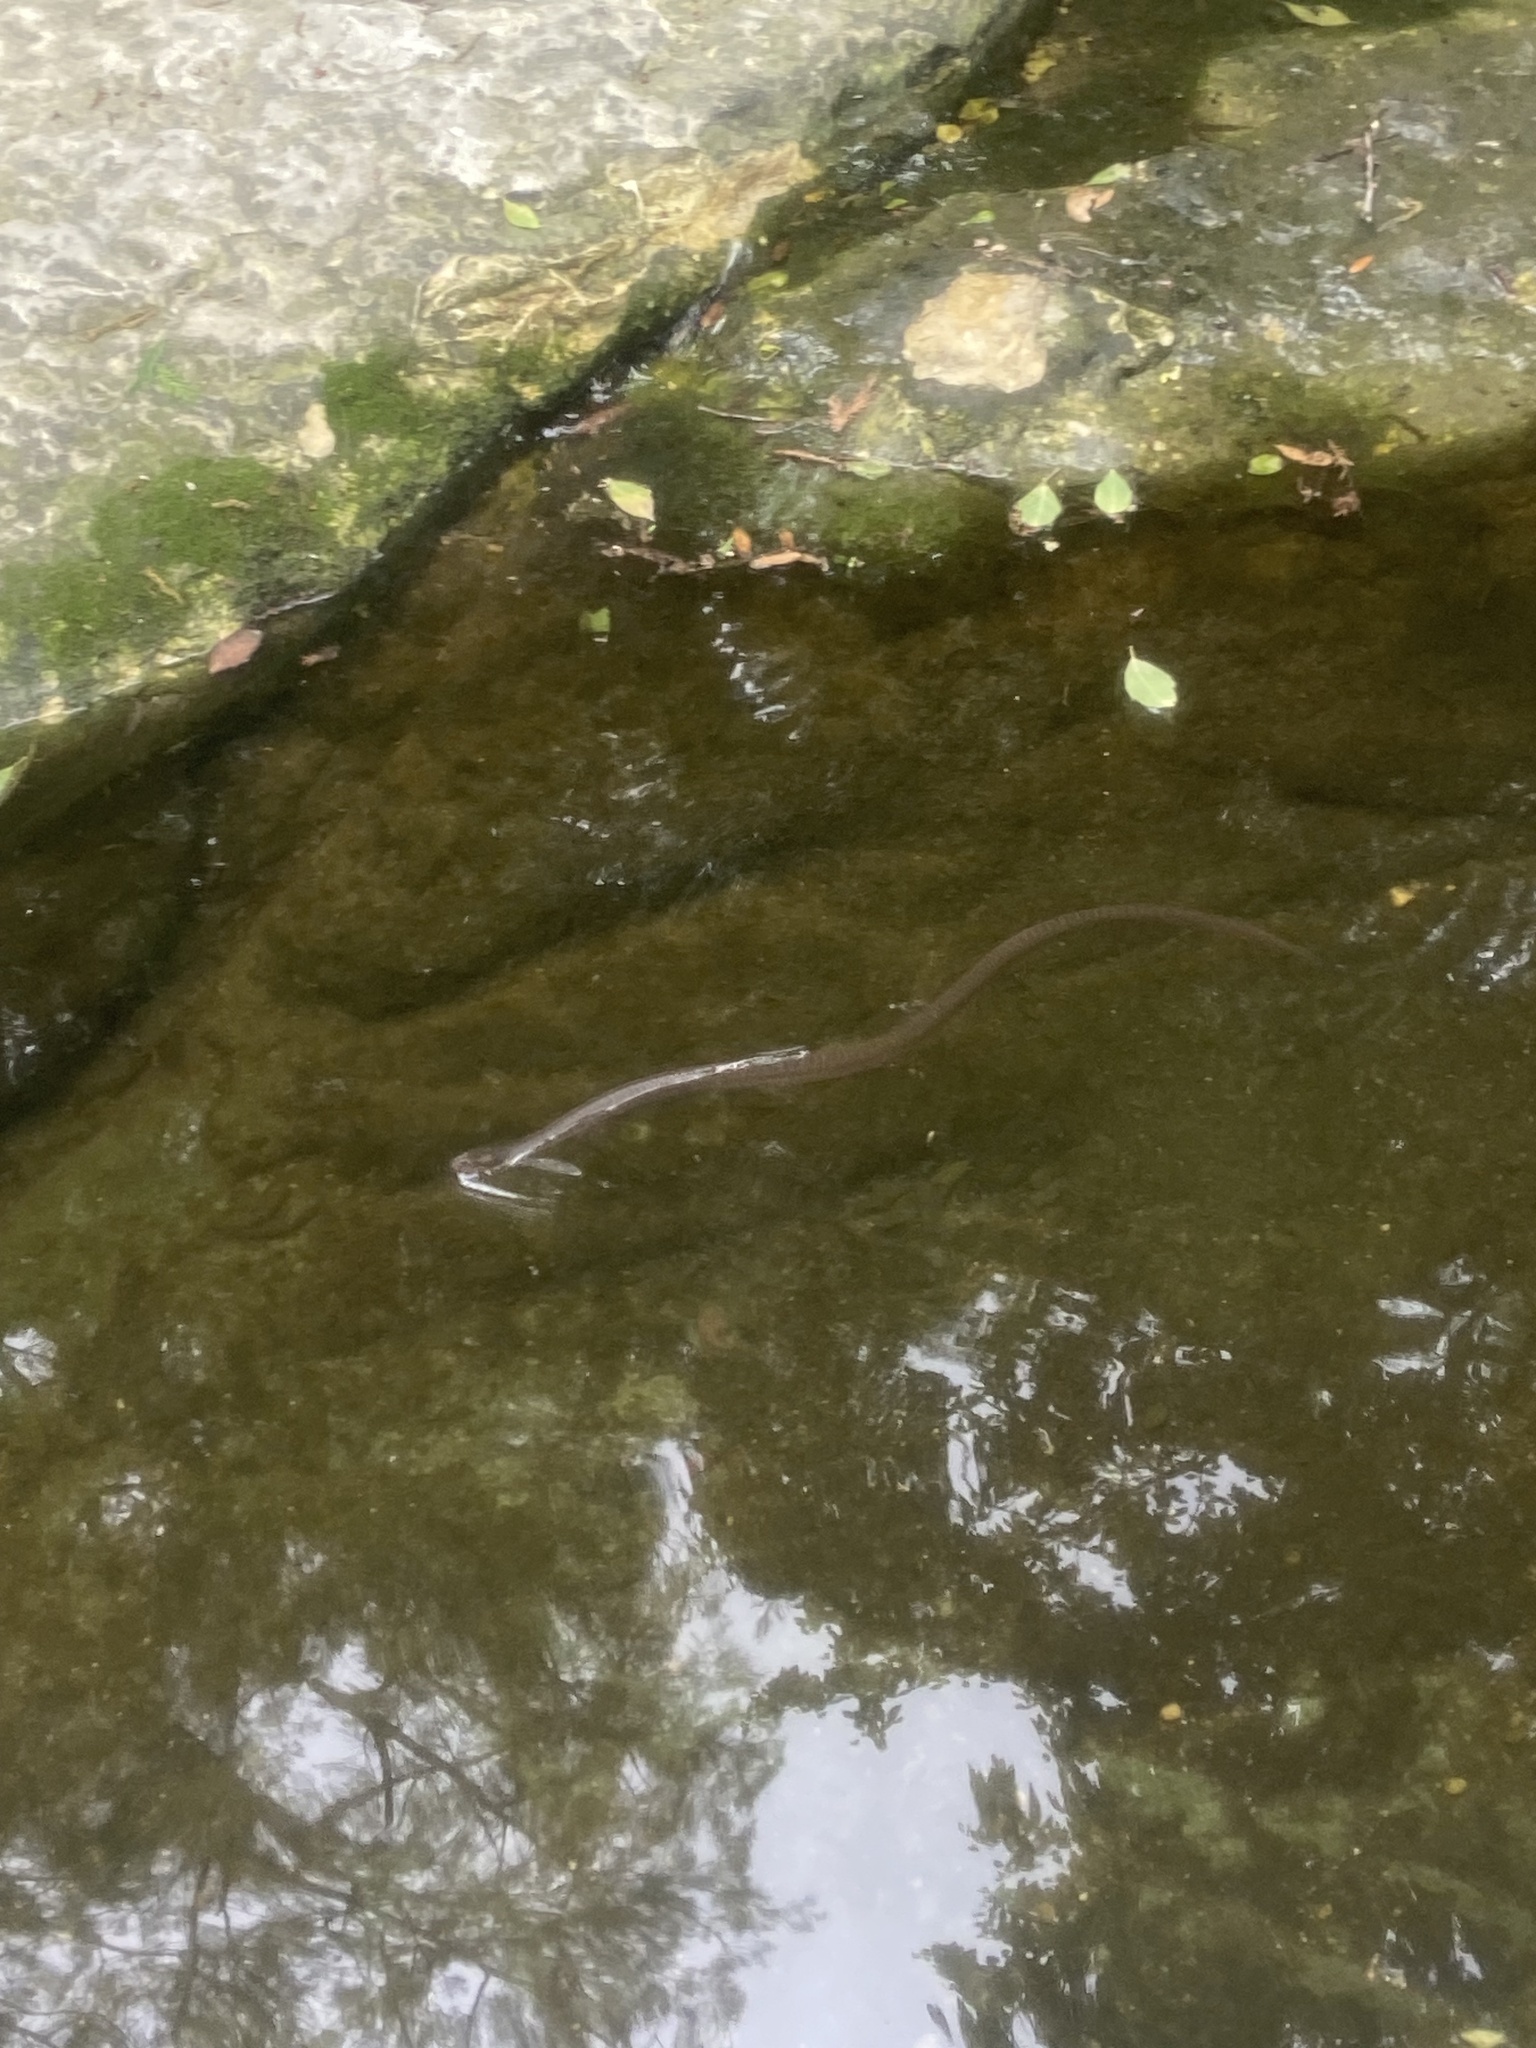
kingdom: Animalia
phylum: Chordata
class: Squamata
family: Colubridae
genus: Nerodia
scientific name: Nerodia erythrogaster
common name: Plainbelly water snake
